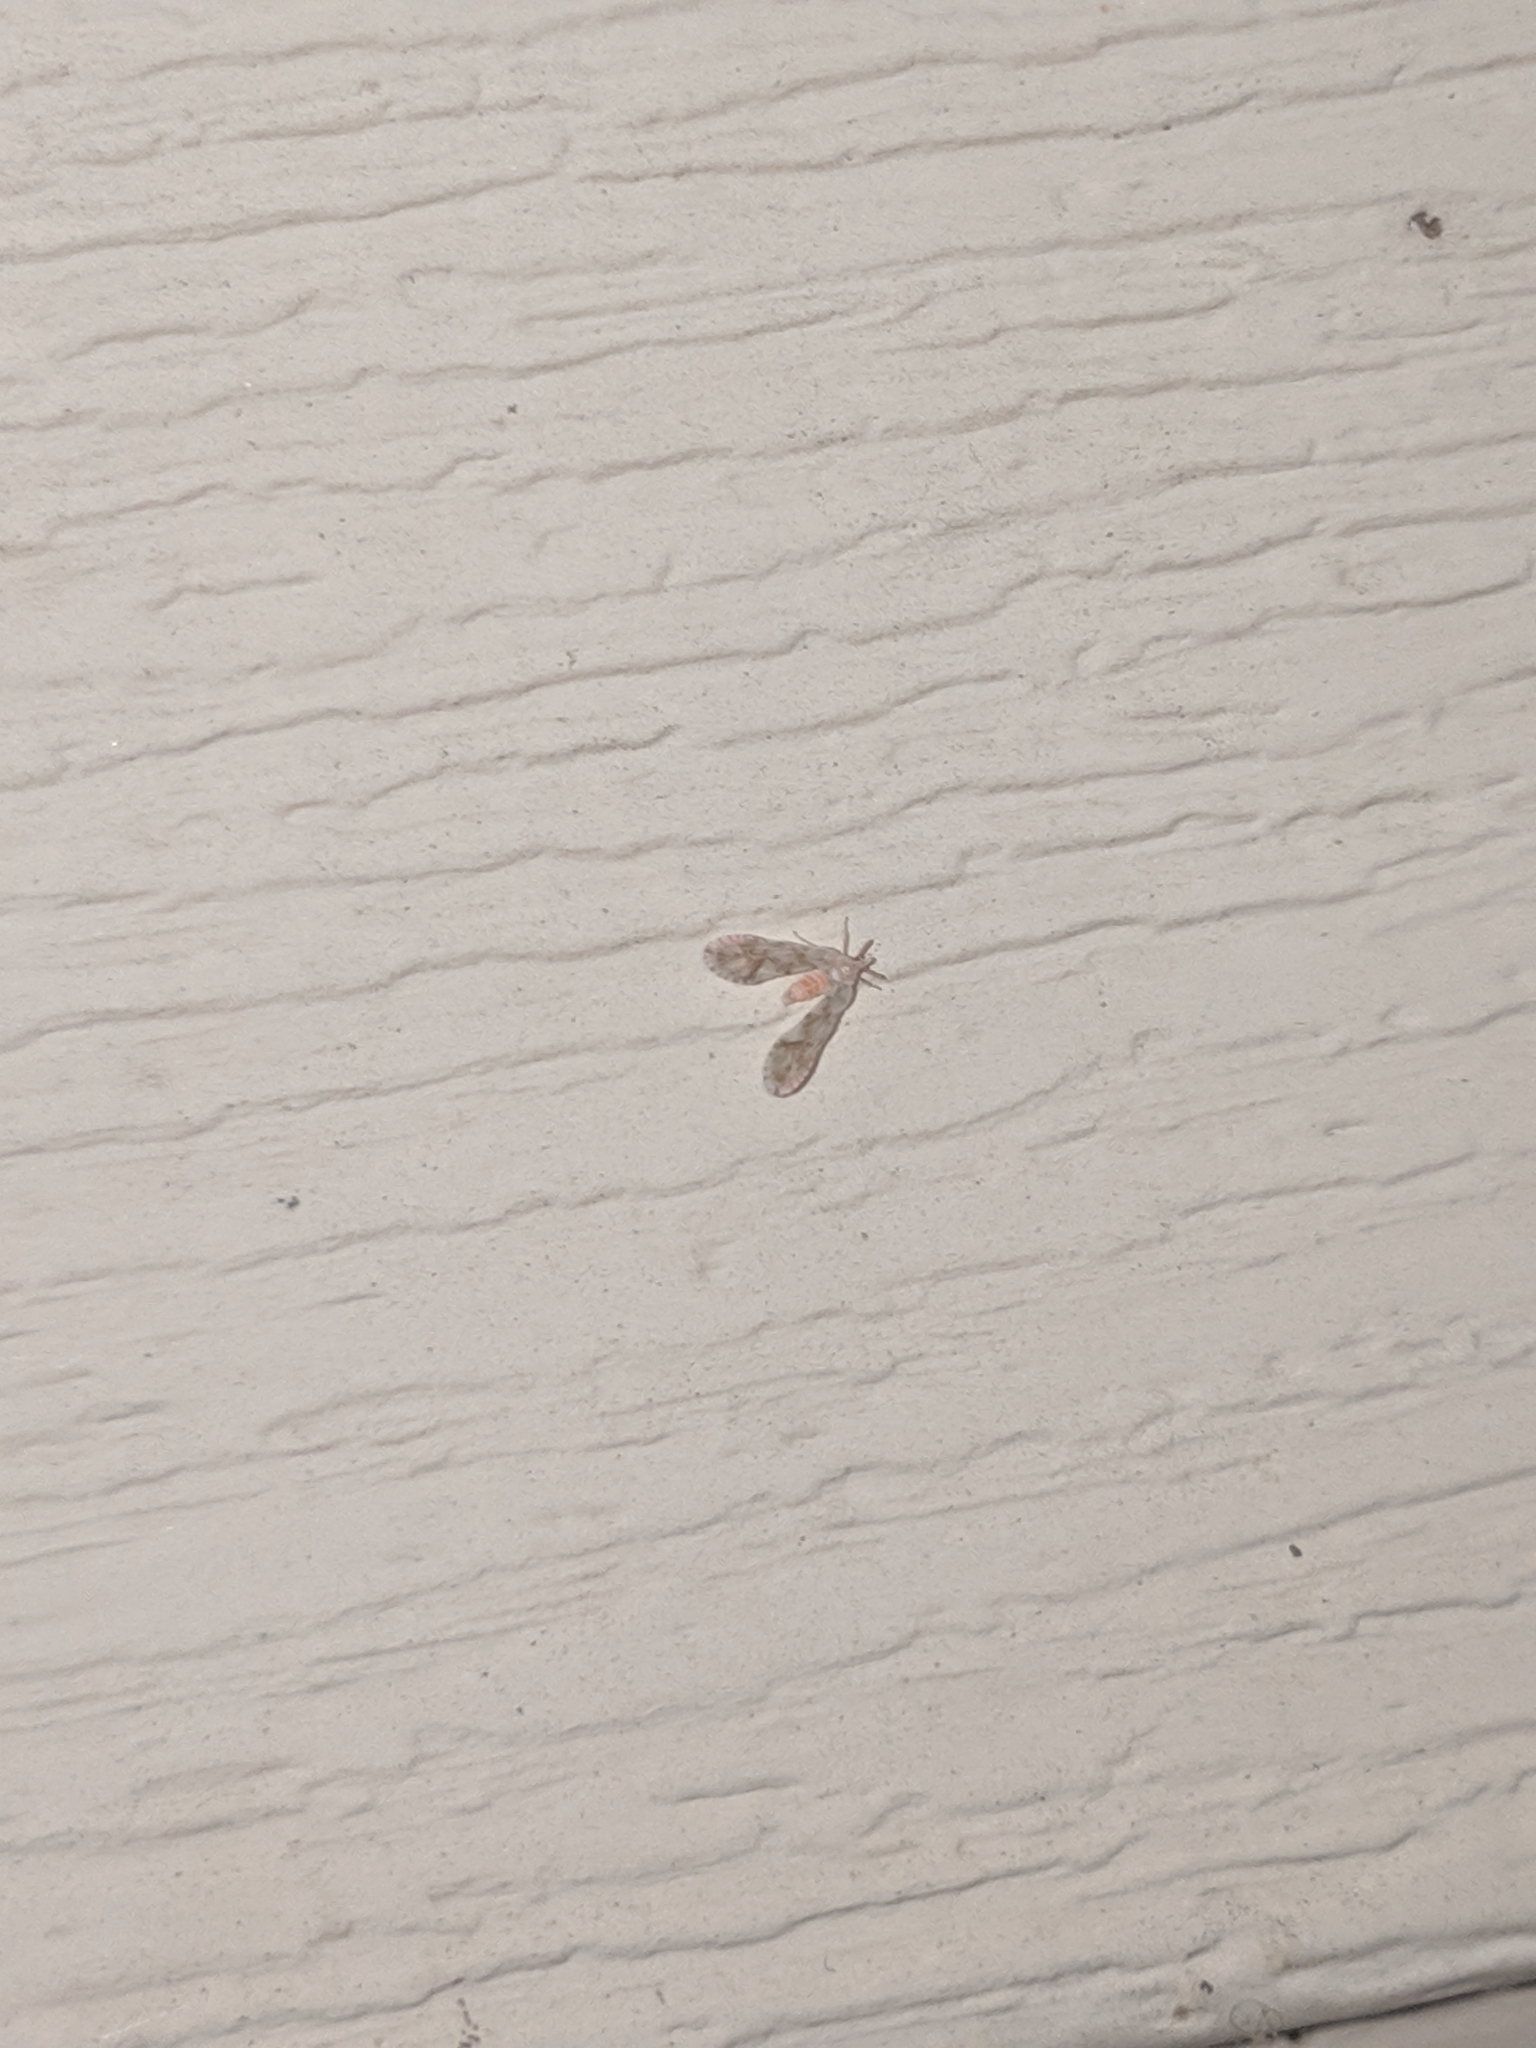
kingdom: Animalia
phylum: Arthropoda
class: Insecta
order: Hemiptera
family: Derbidae
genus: Anotia
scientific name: Anotia kirkaldyi
